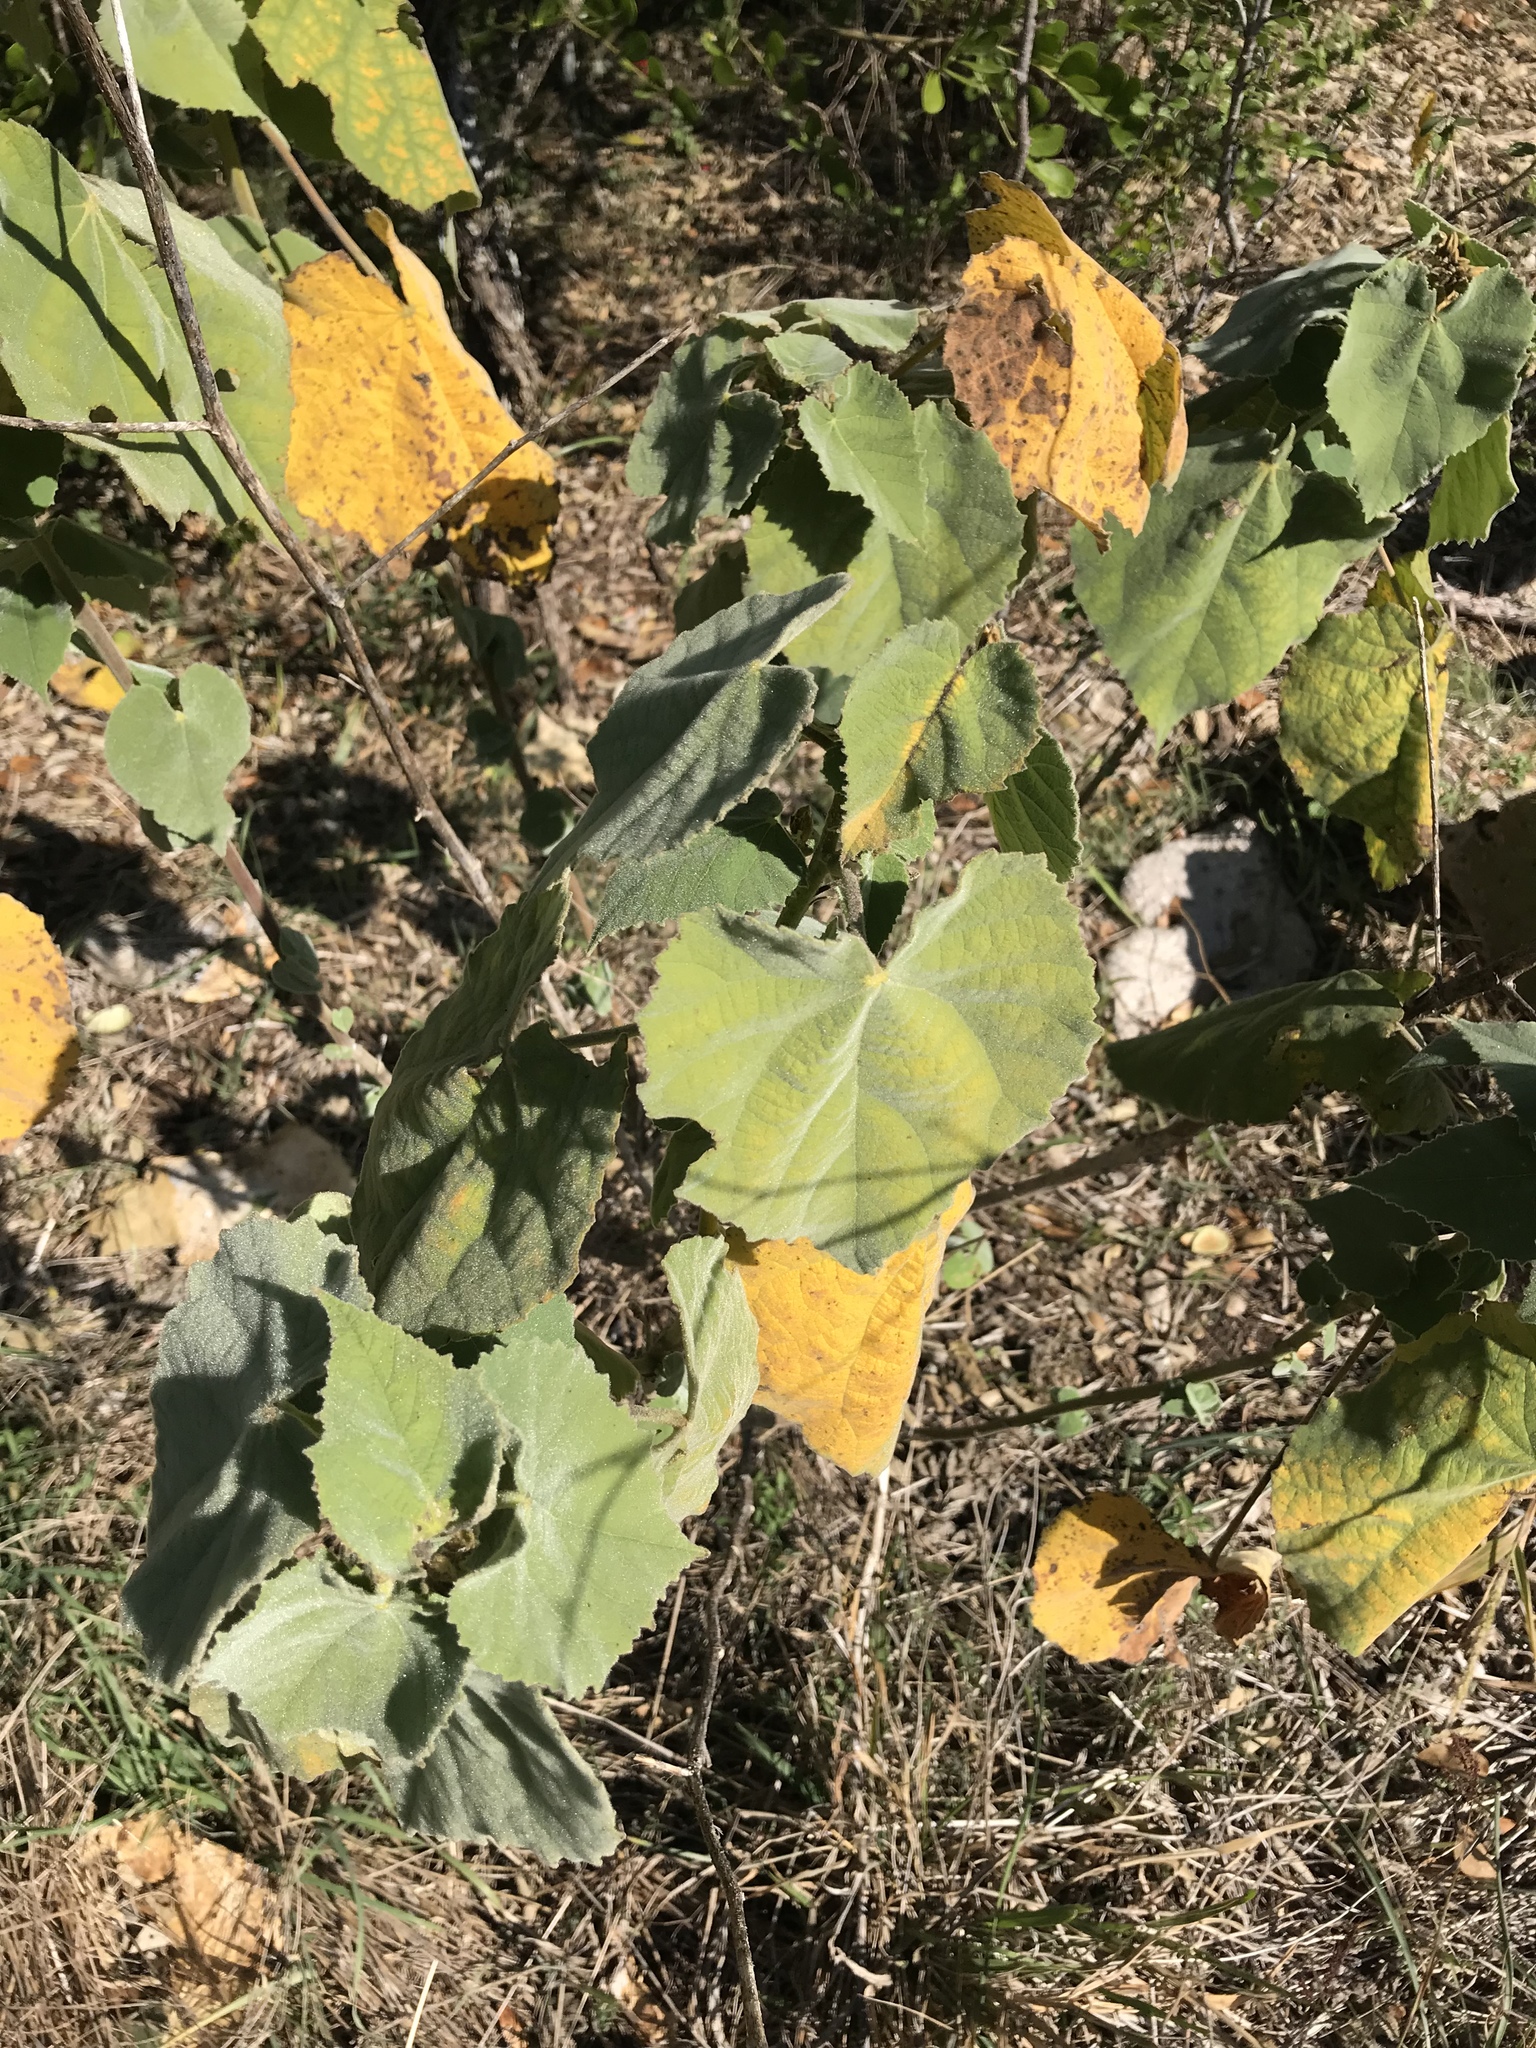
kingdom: Plantae
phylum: Tracheophyta
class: Magnoliopsida
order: Malvales
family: Malvaceae
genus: Allowissadula
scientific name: Allowissadula holosericea
